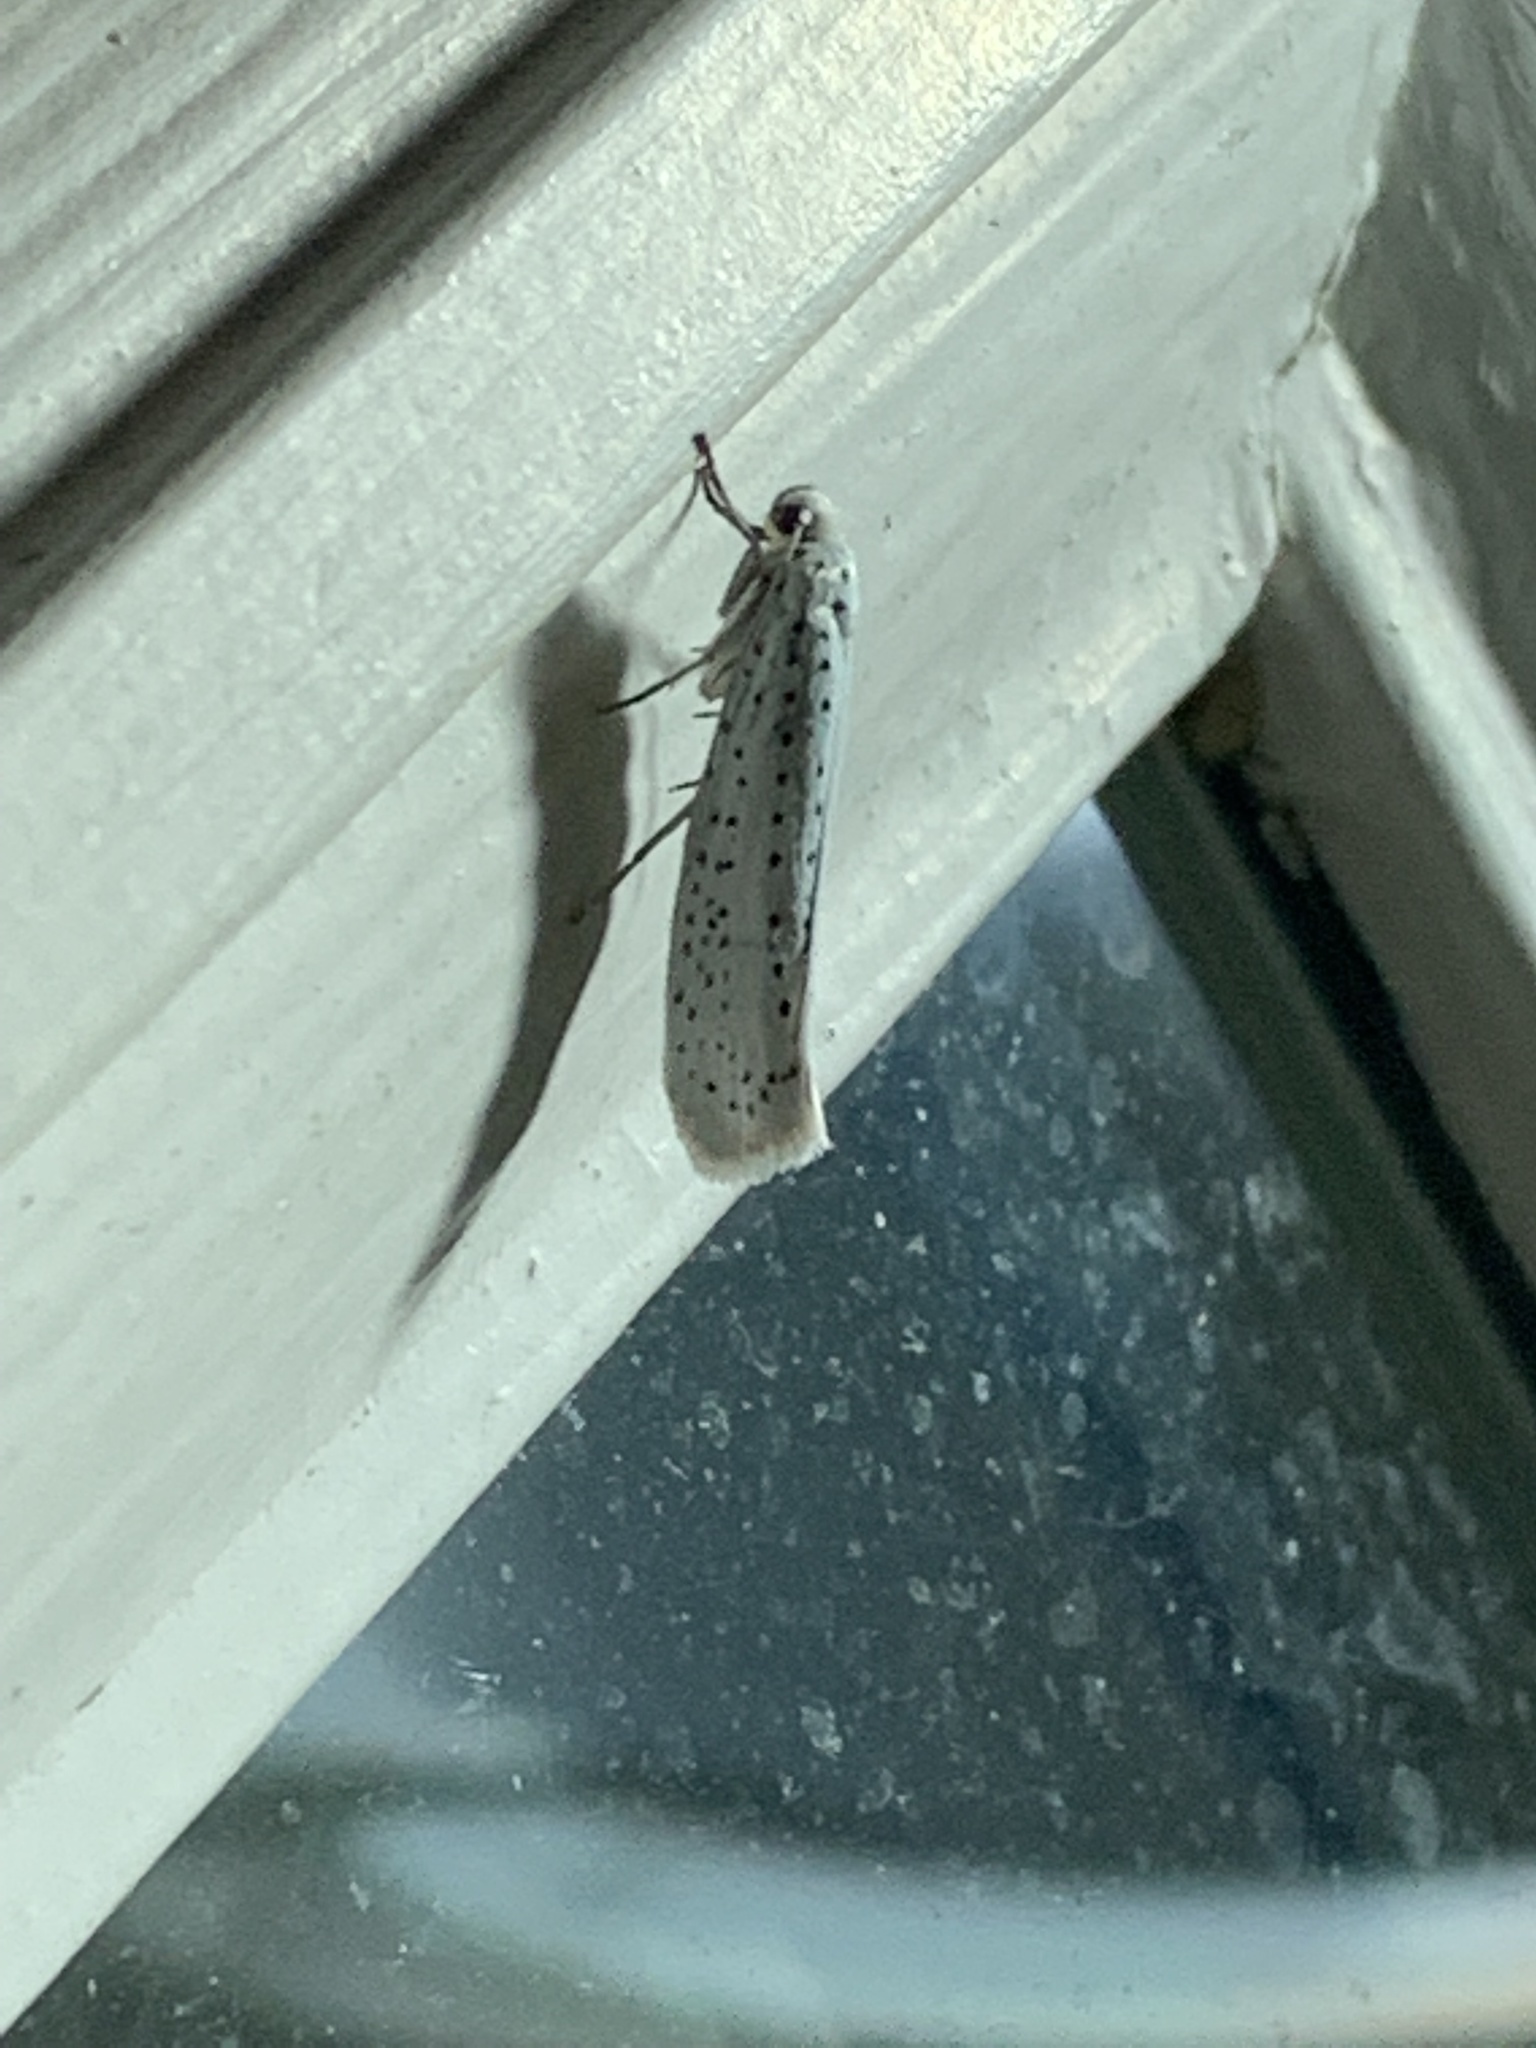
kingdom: Animalia
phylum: Arthropoda
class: Insecta
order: Lepidoptera
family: Yponomeutidae
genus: Yponomeuta
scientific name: Yponomeuta evonymella
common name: Bird-cherry ermine
